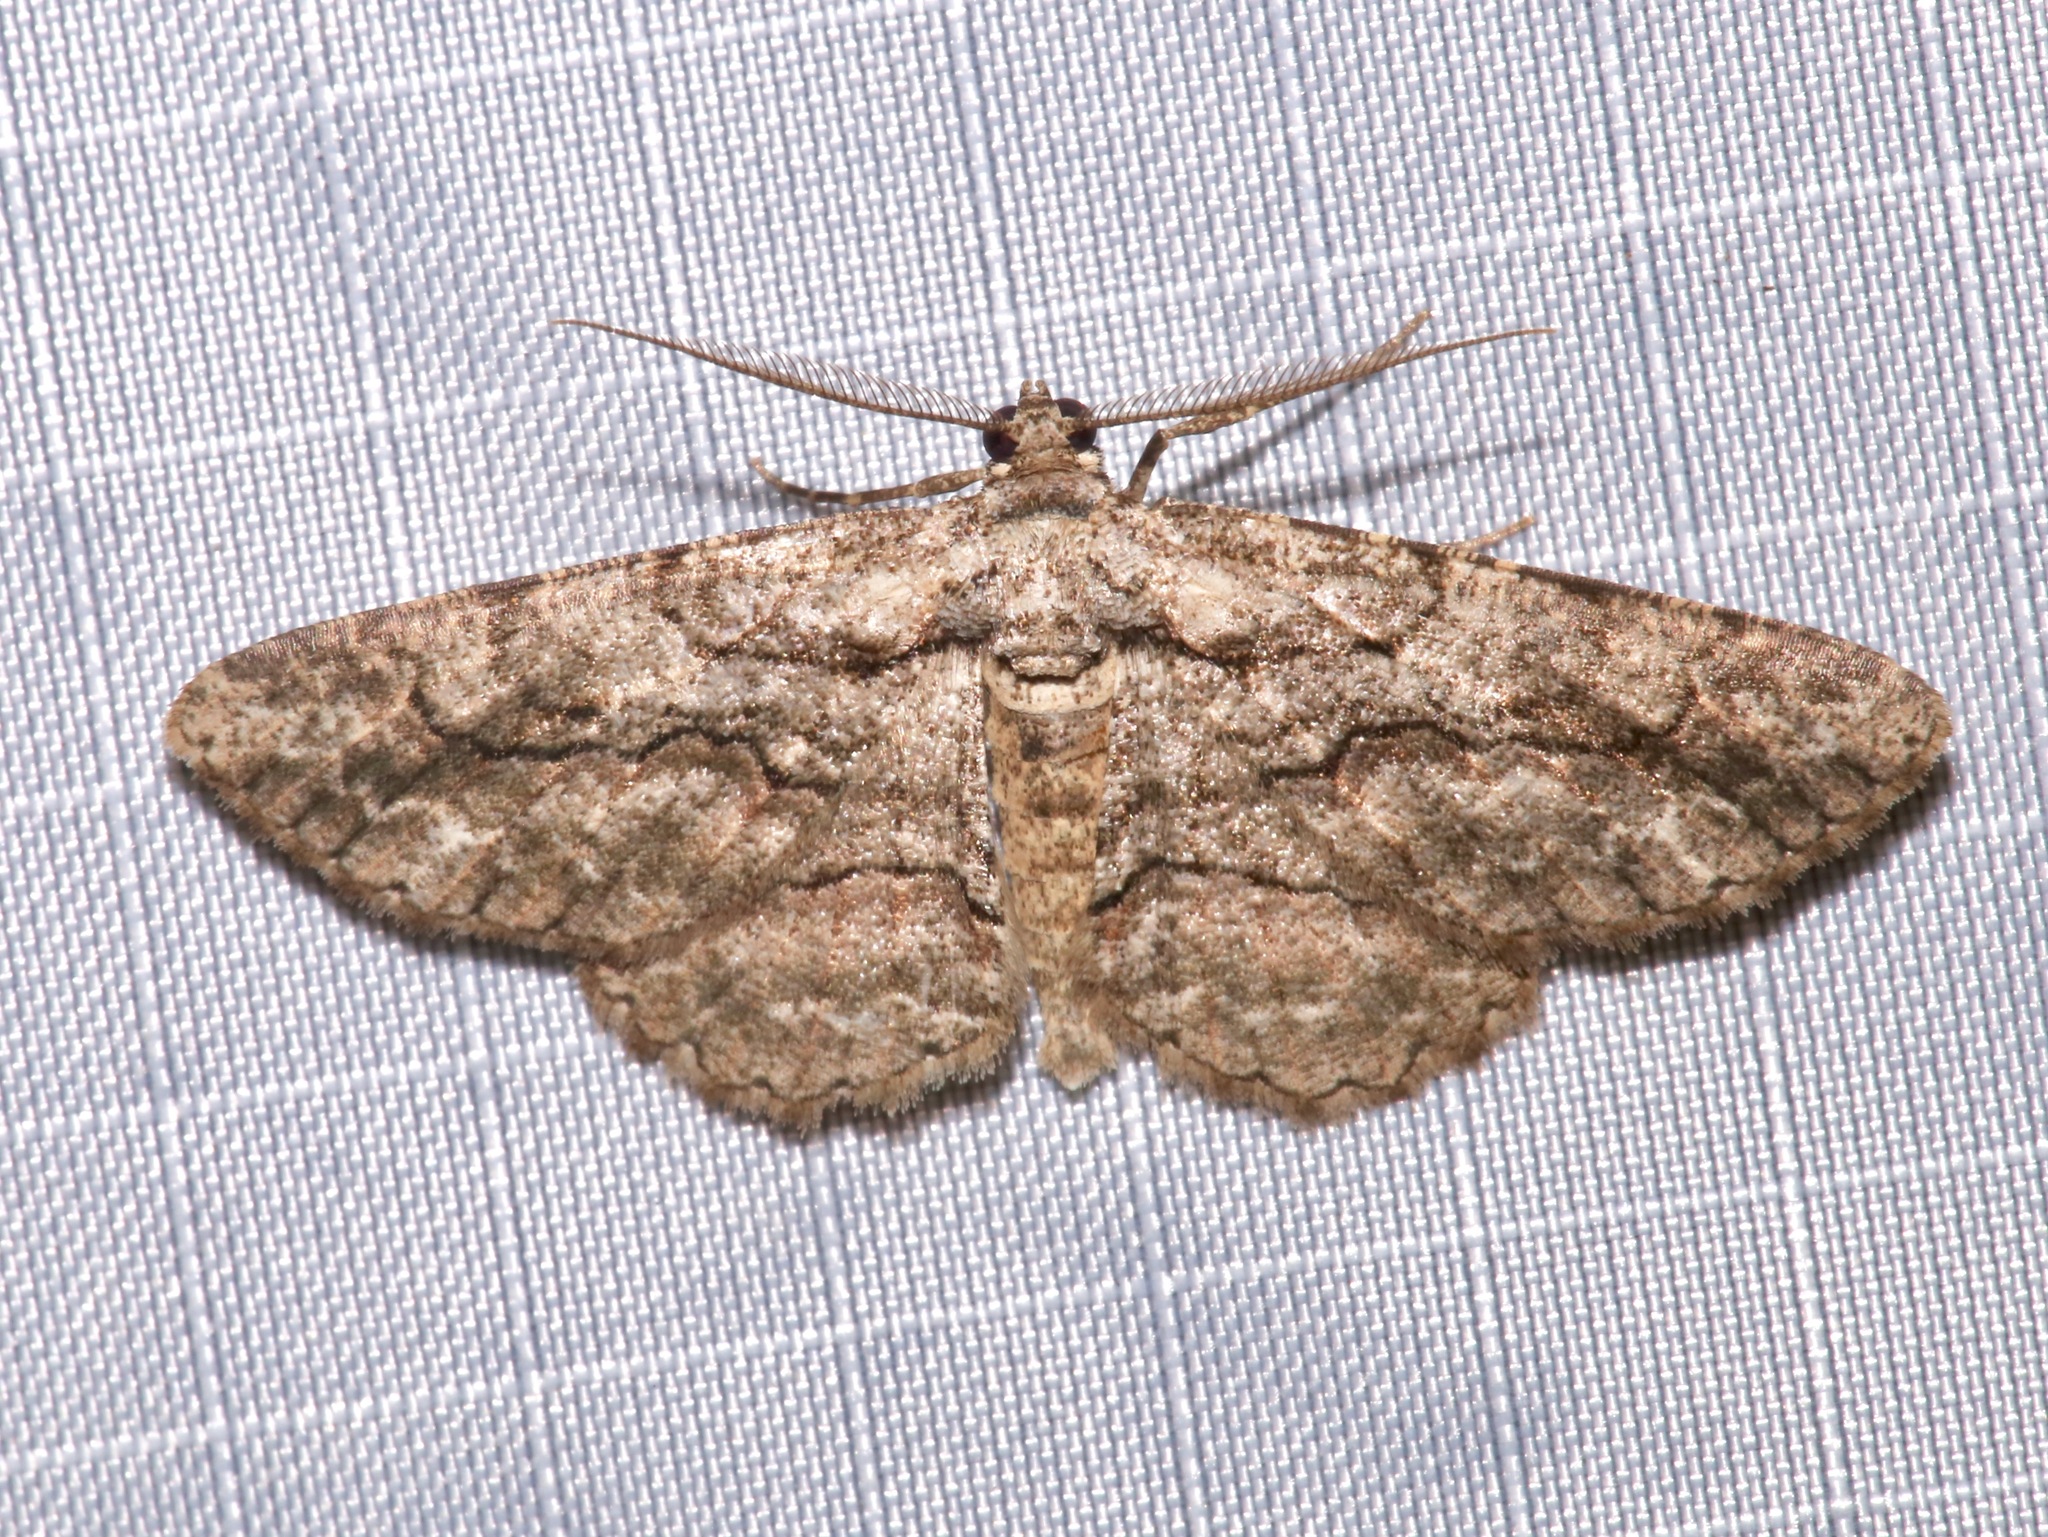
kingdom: Animalia
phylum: Arthropoda
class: Insecta
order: Lepidoptera
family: Geometridae
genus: Anavitrinella
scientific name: Anavitrinella pampinaria
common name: Common gray
